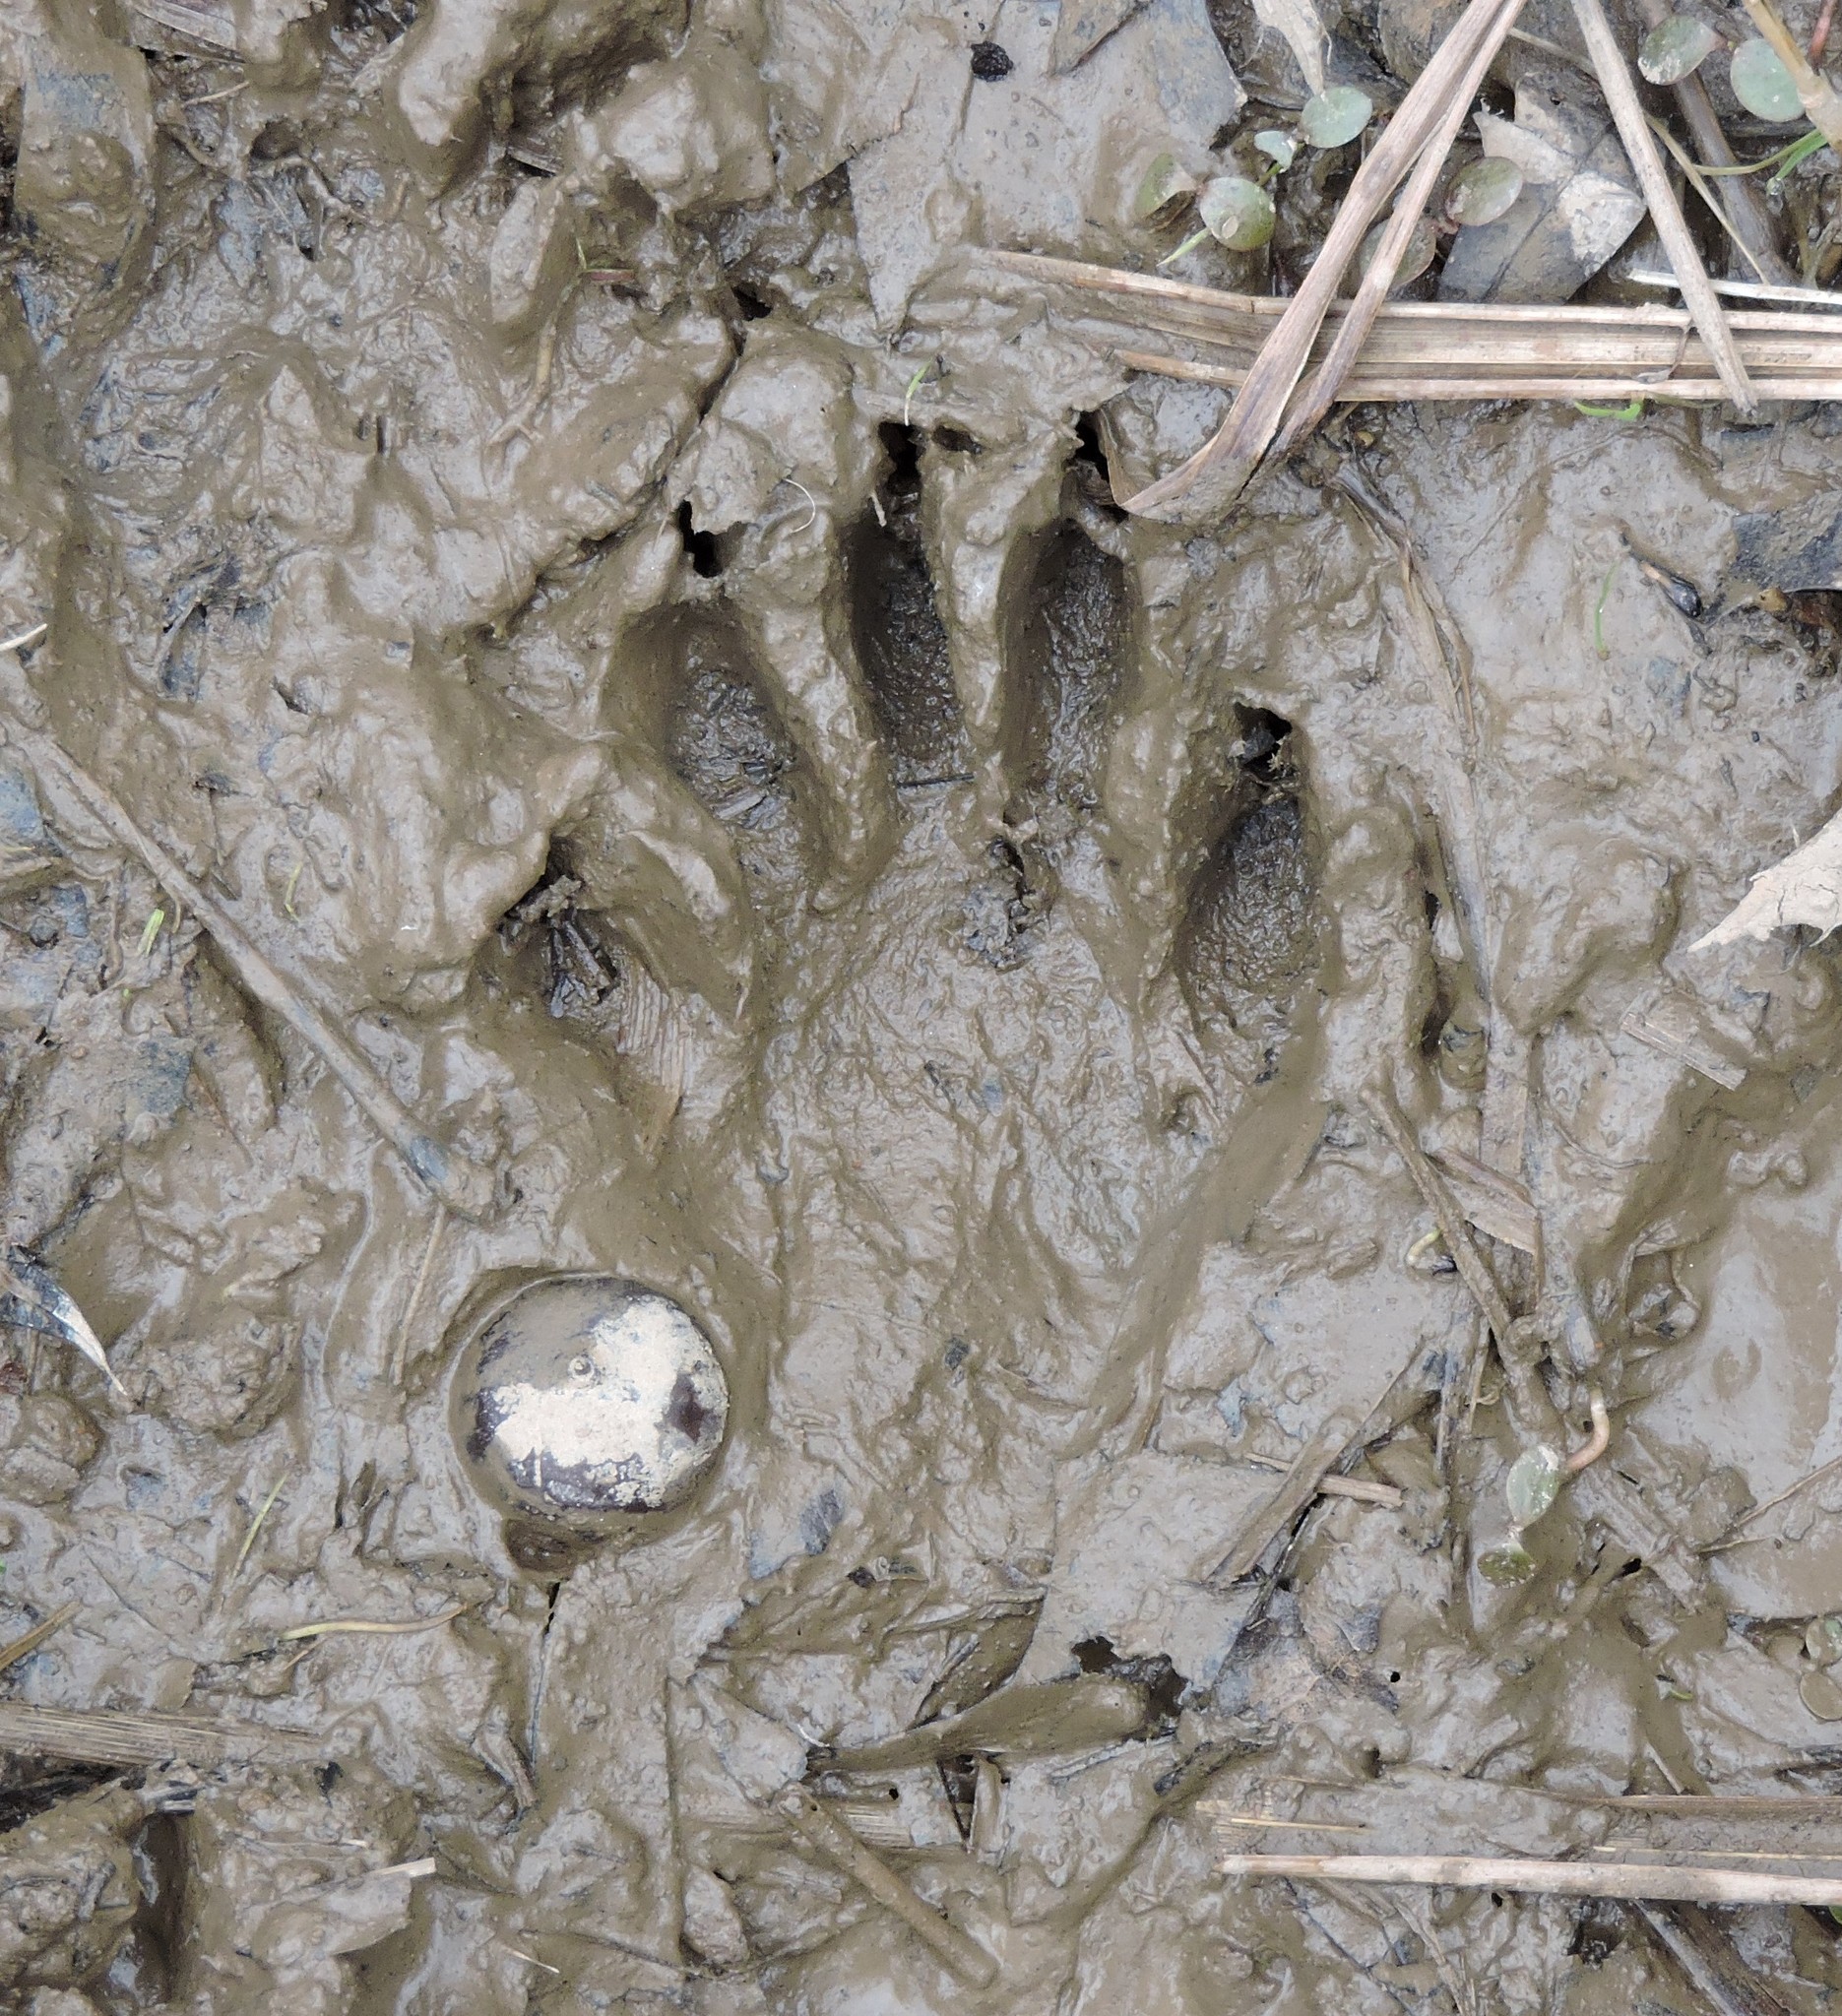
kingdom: Animalia
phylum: Chordata
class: Mammalia
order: Carnivora
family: Procyonidae
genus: Procyon
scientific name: Procyon lotor
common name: Raccoon
